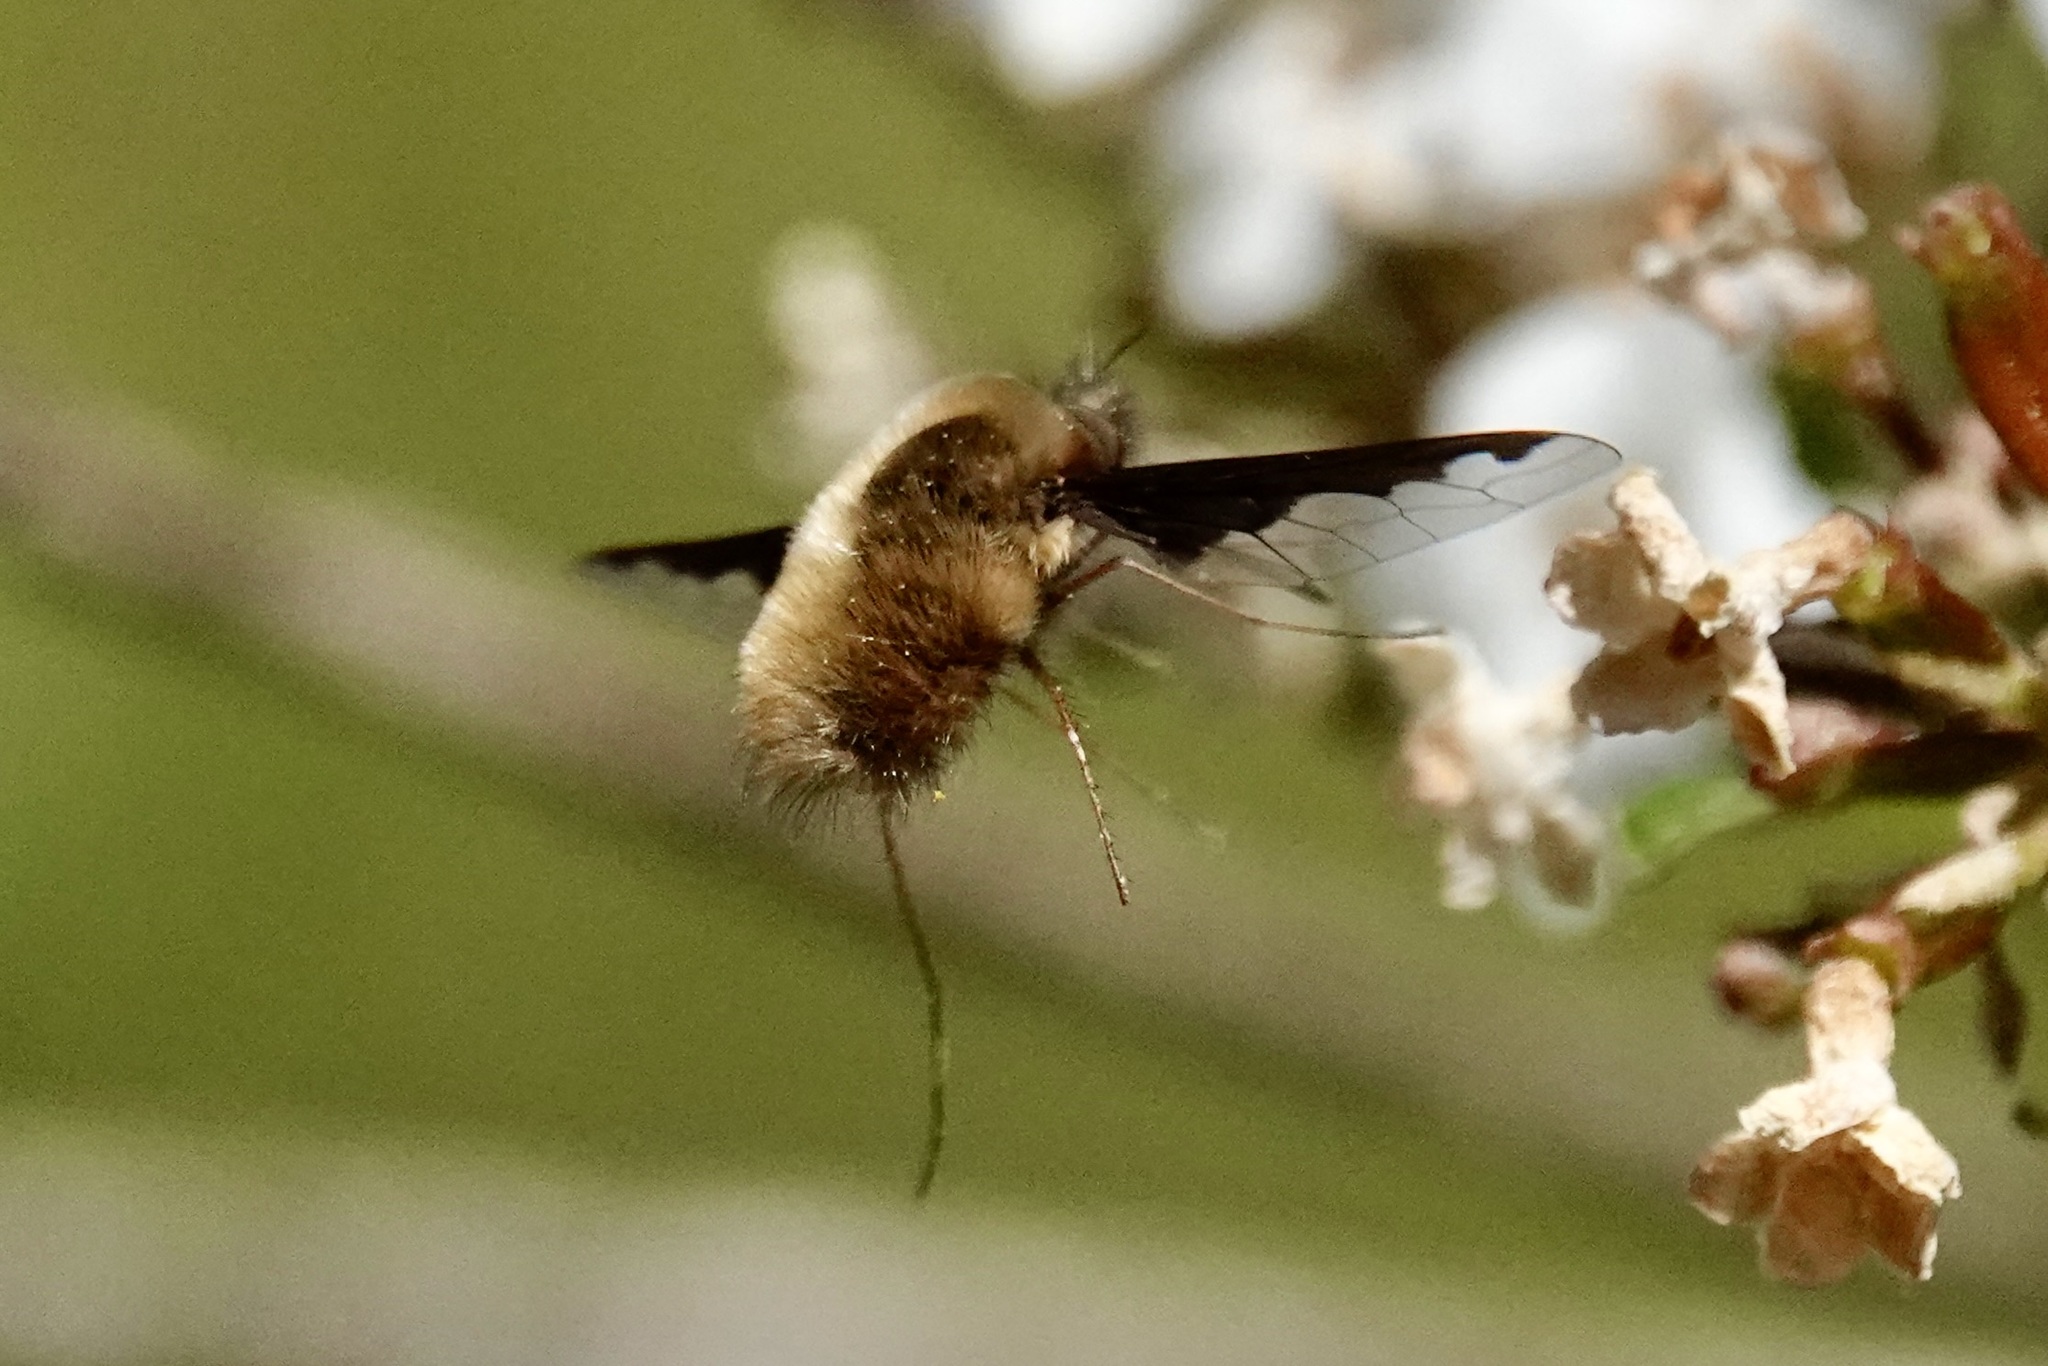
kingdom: Animalia
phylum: Arthropoda
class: Insecta
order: Diptera
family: Bombyliidae
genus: Bombylius
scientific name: Bombylius major
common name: Bee fly
